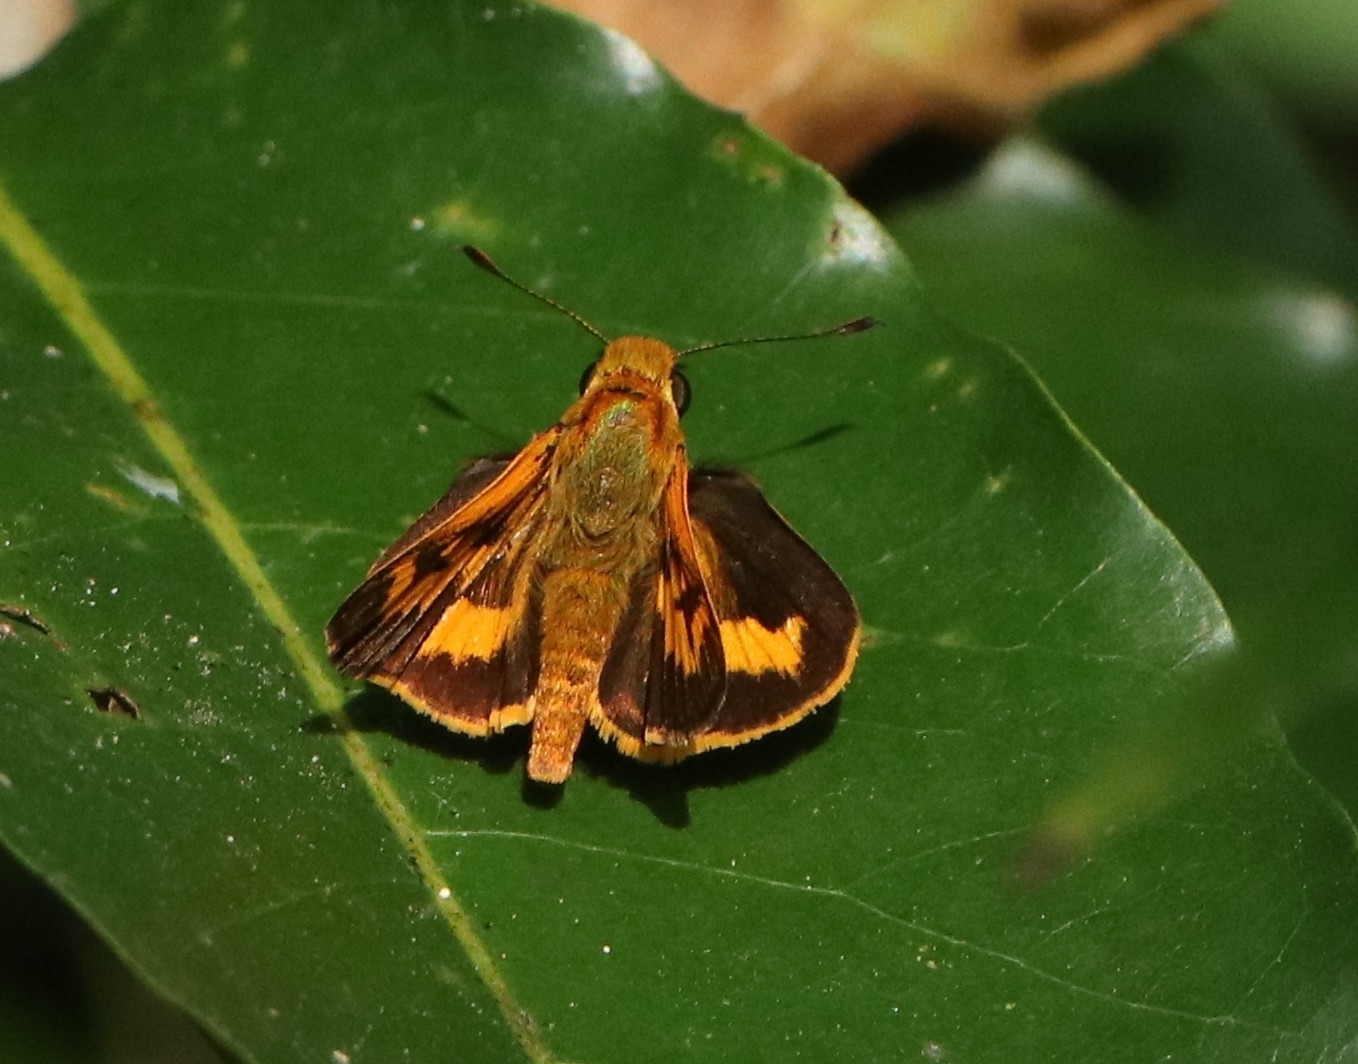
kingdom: Animalia
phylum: Arthropoda
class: Insecta
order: Lepidoptera
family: Hesperiidae
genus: Oriens
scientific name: Oriens goloides
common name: Smaller dartlet
